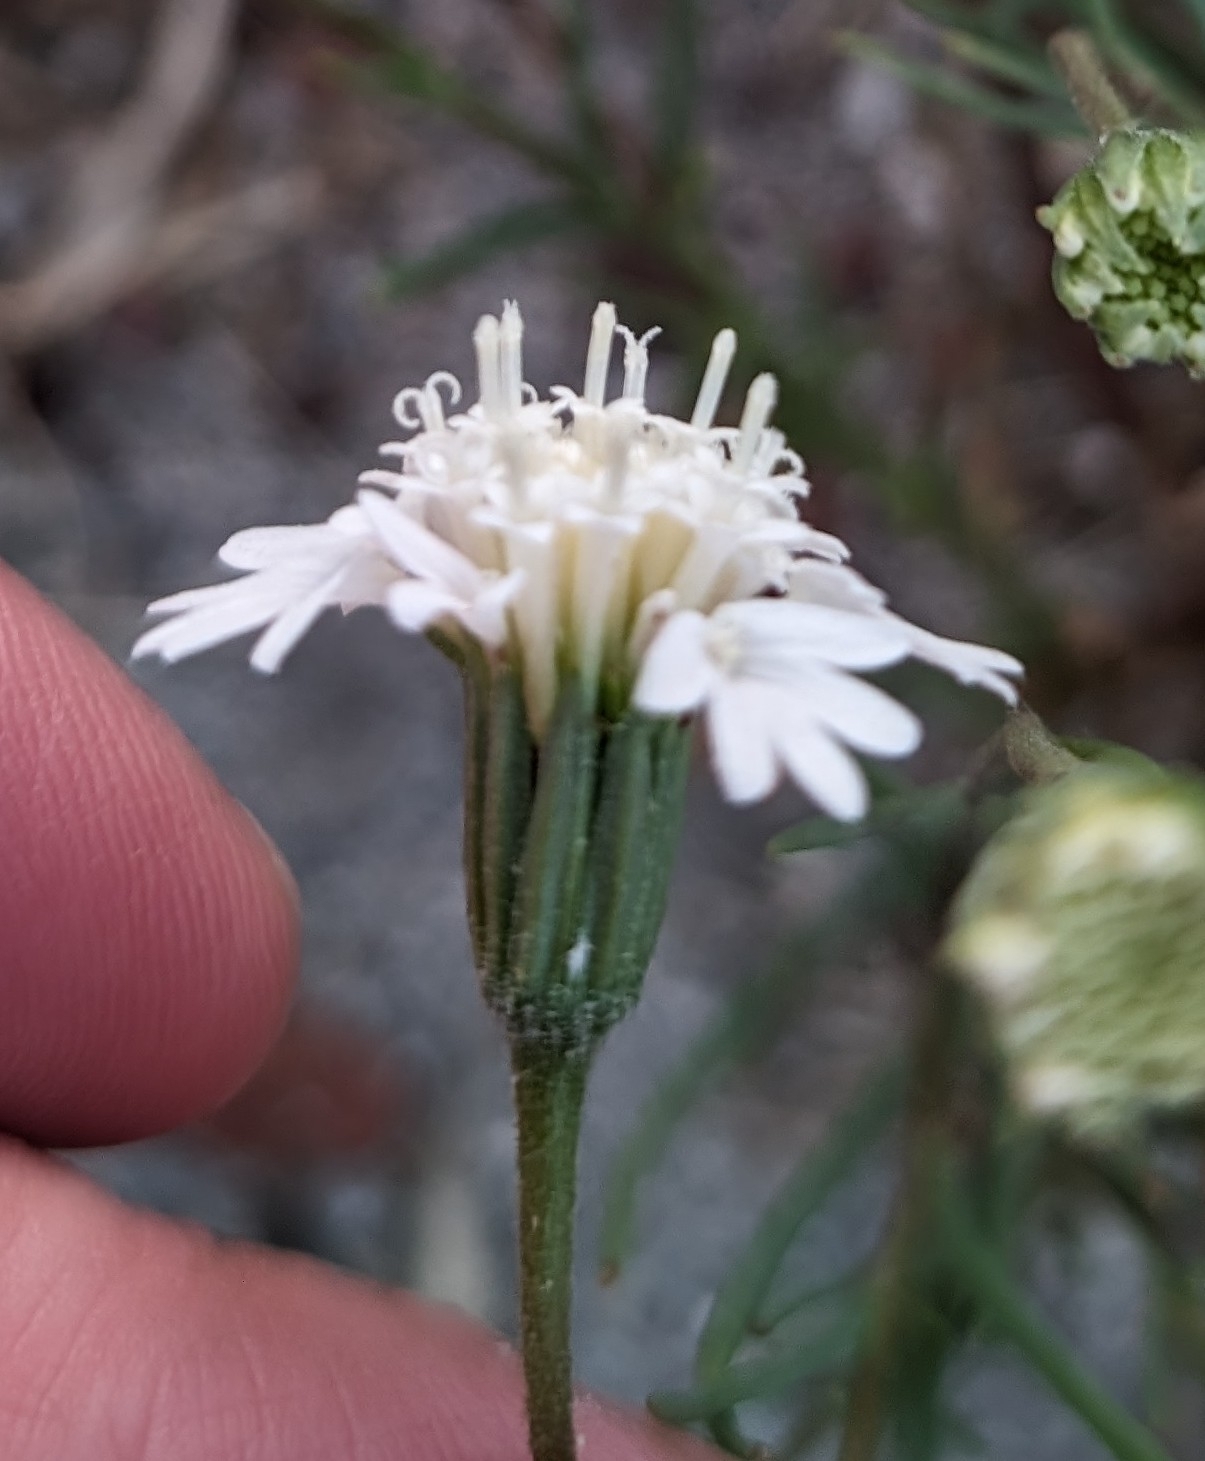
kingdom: Plantae
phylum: Tracheophyta
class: Magnoliopsida
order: Asterales
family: Asteraceae
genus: Chaenactis
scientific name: Chaenactis fremontii
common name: Fremont pincushion
